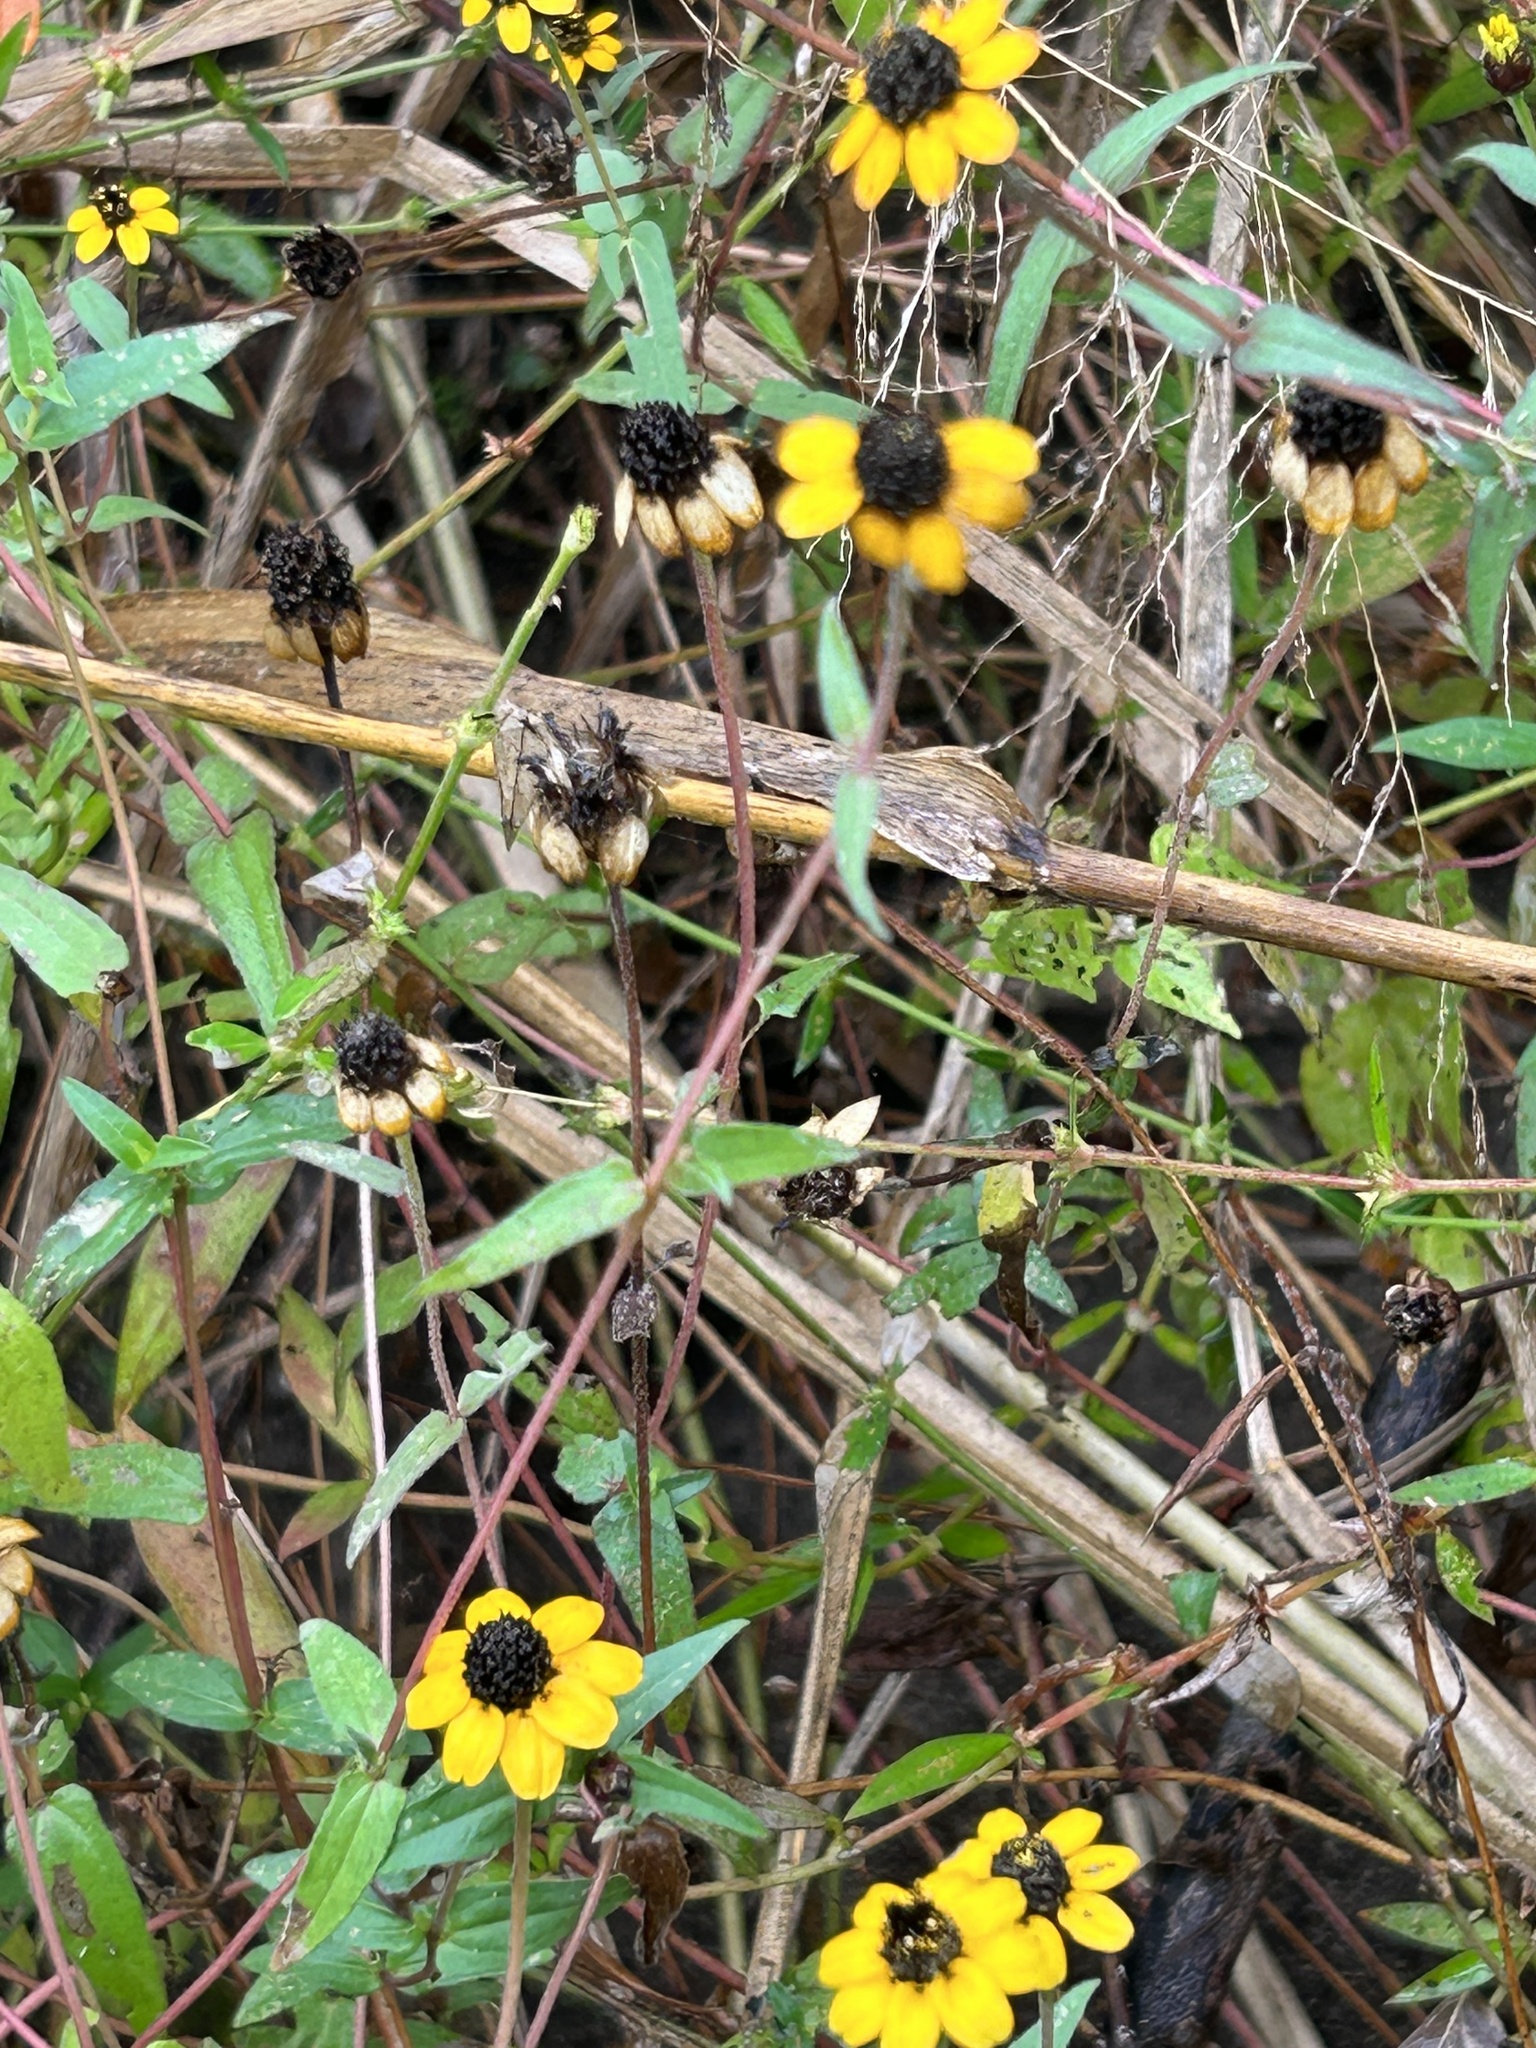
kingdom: Plantae
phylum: Tracheophyta
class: Magnoliopsida
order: Asterales
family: Asteraceae
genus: Zinnia
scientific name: Zinnia maritima
